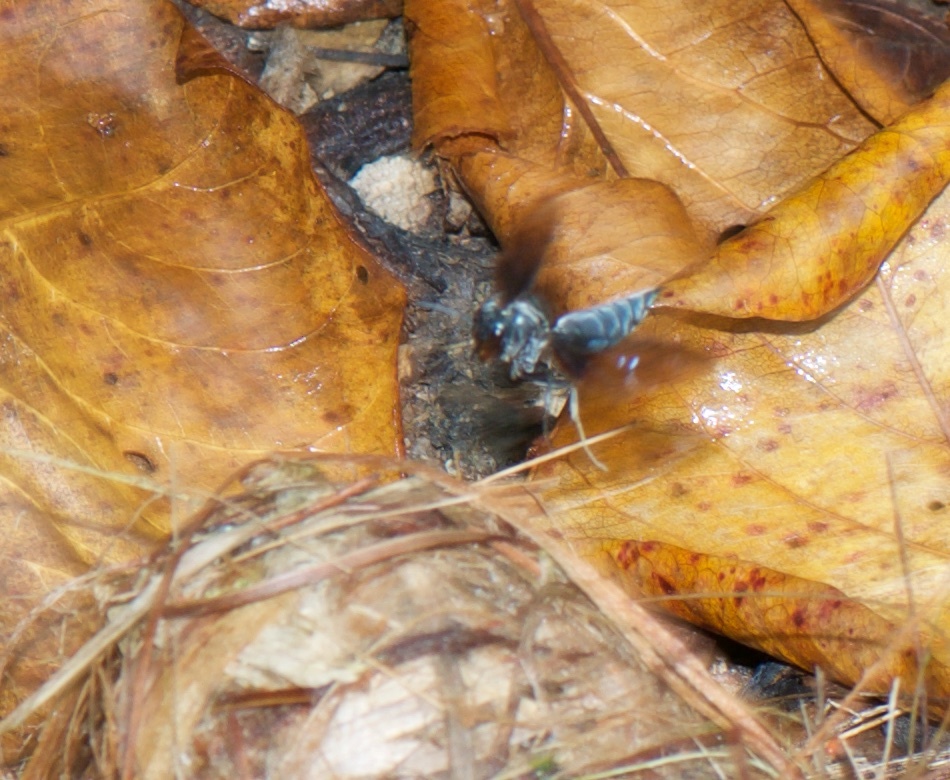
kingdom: Animalia
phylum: Arthropoda
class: Insecta
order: Hymenoptera
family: Vespidae
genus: Synoeca
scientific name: Synoeca septentrionalis
